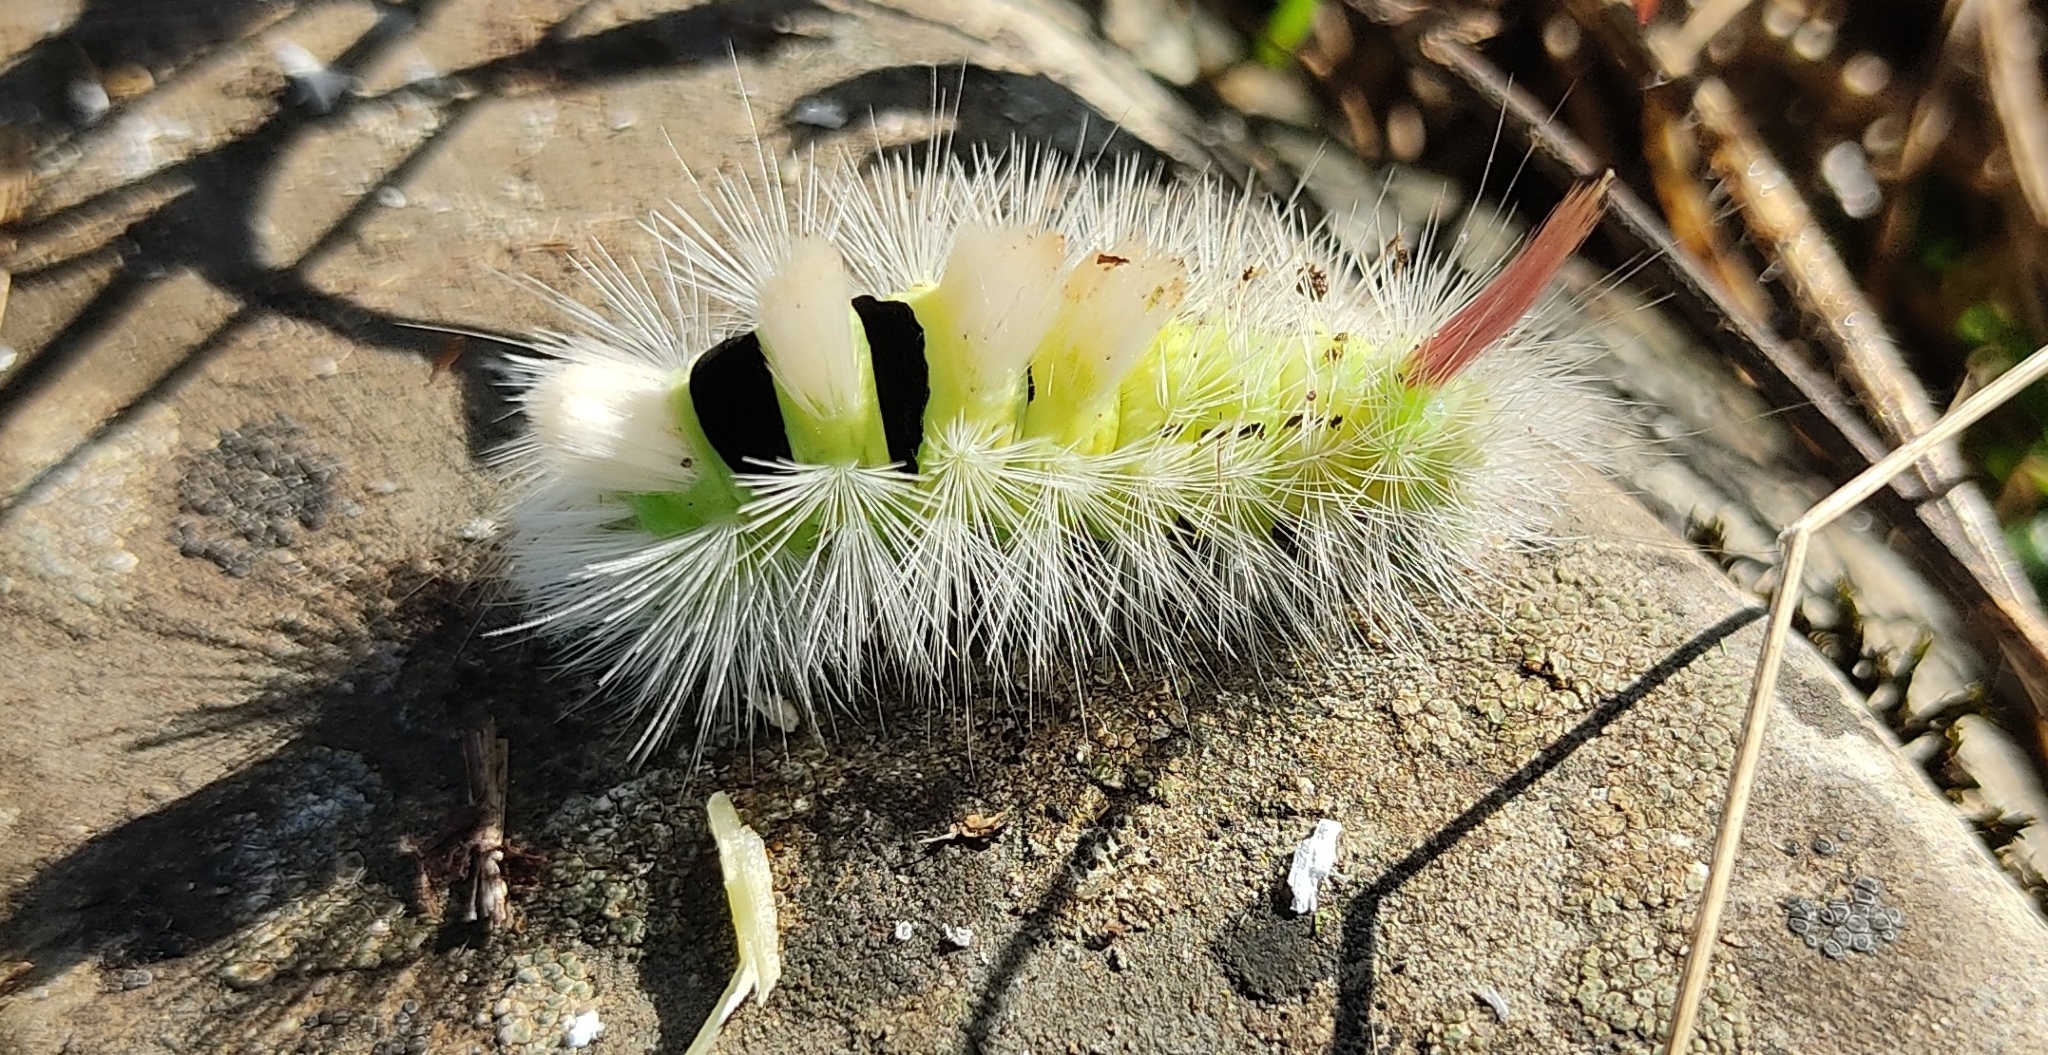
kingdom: Animalia
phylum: Arthropoda
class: Insecta
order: Lepidoptera
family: Erebidae
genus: Calliteara
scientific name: Calliteara pudibunda
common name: Pale tussock
